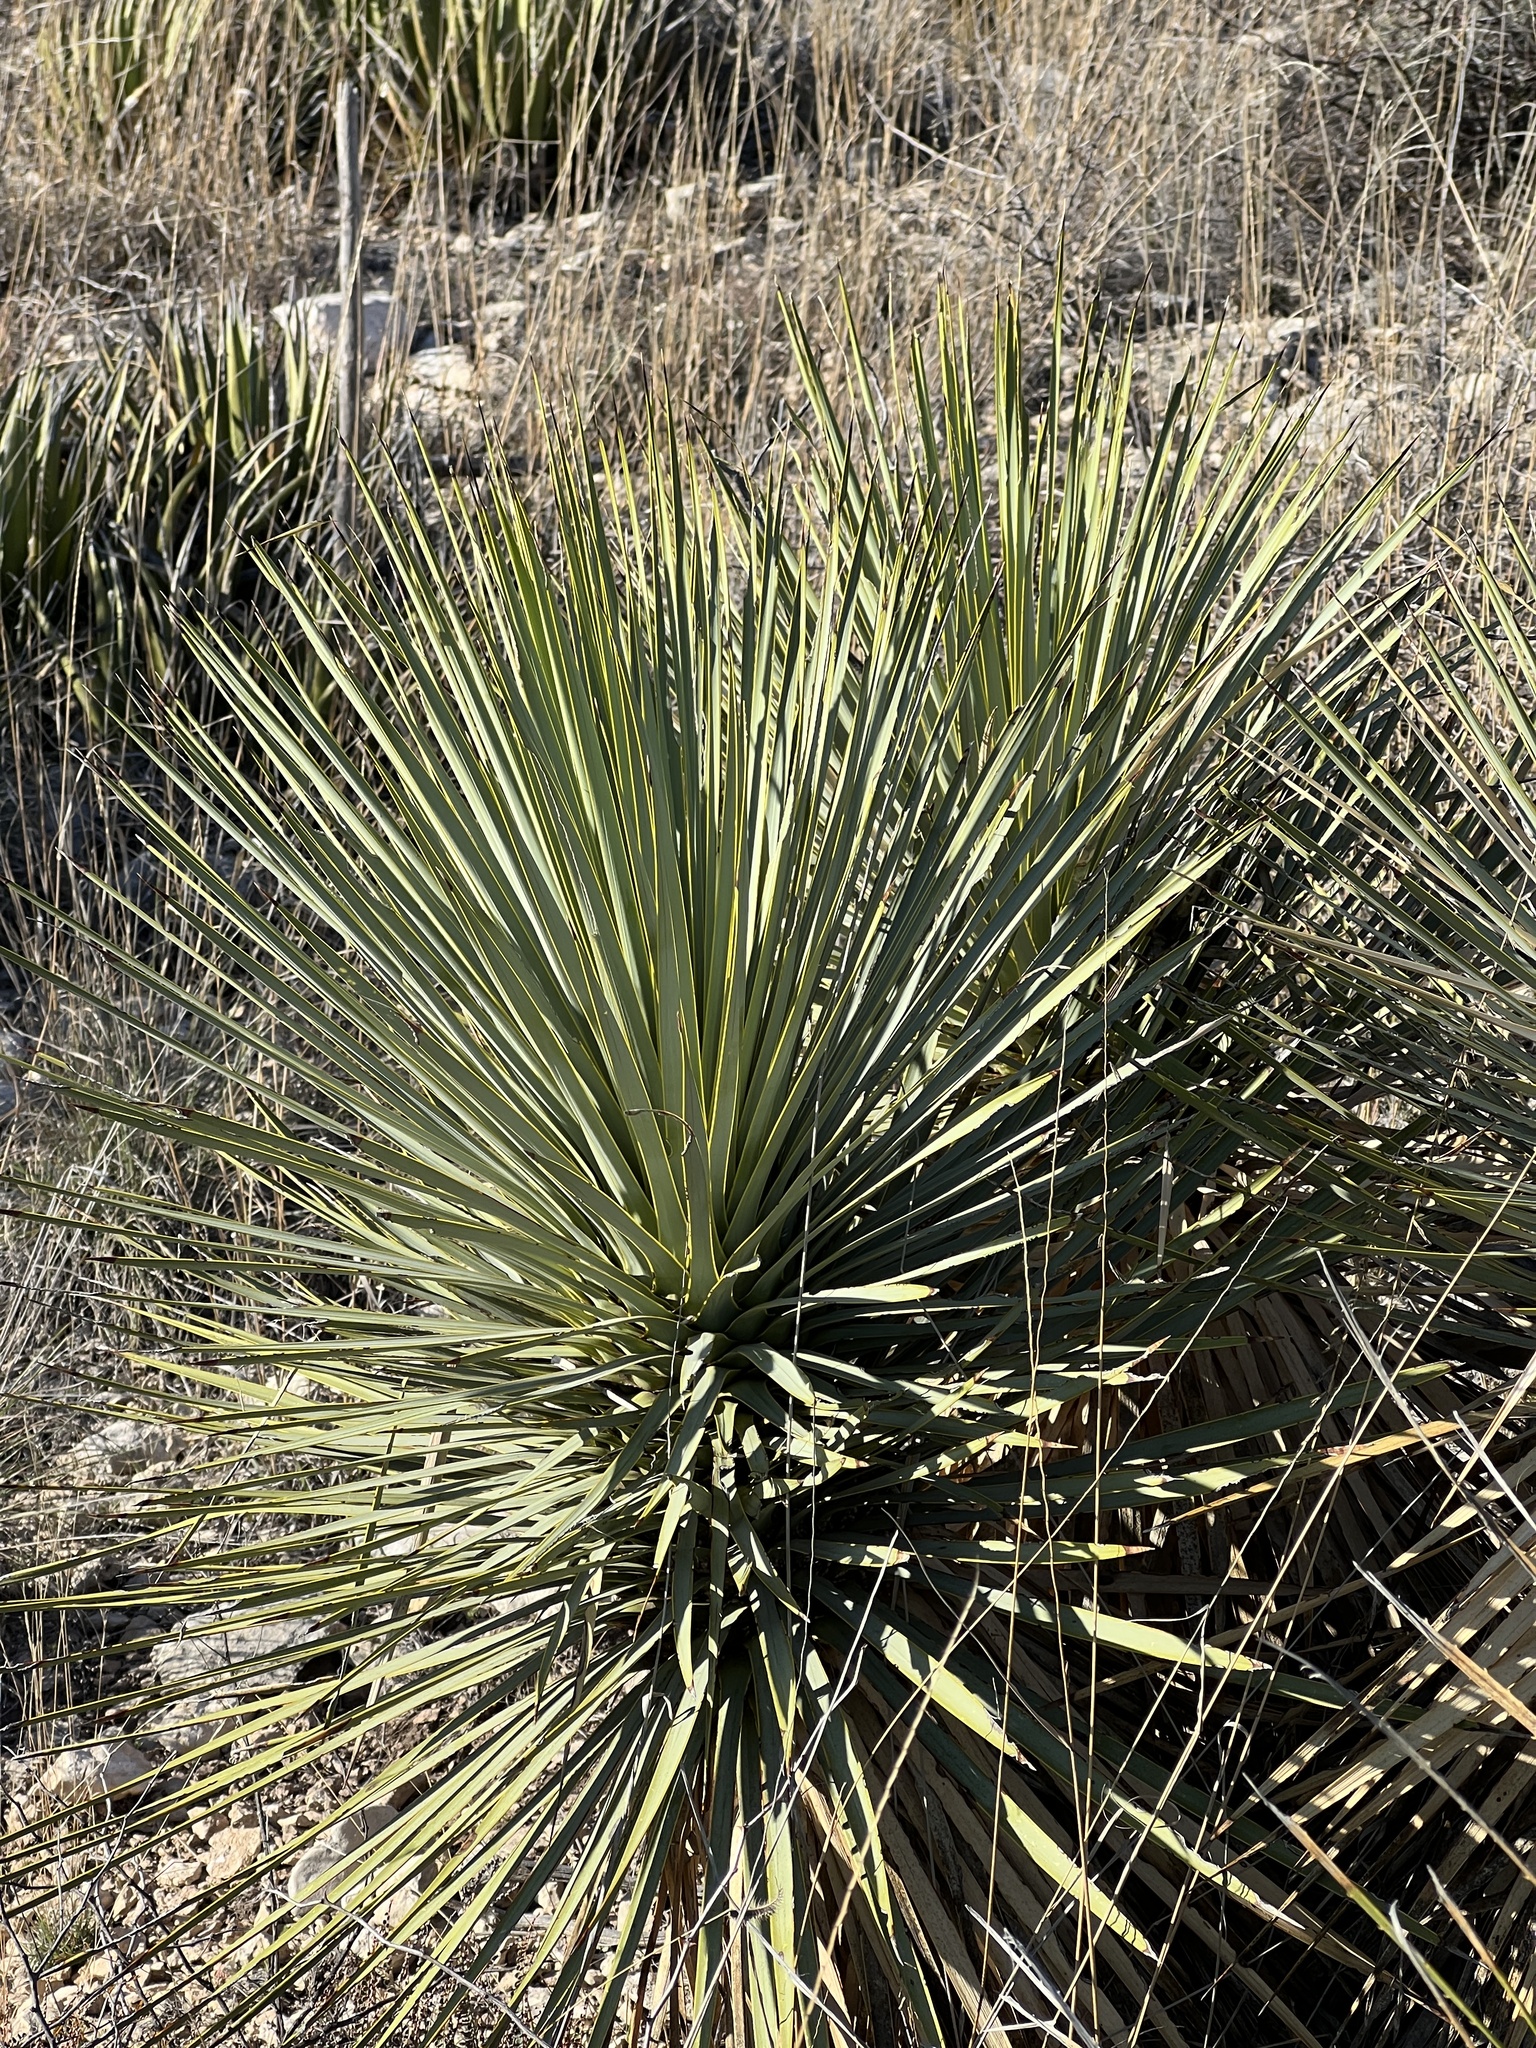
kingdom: Plantae
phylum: Tracheophyta
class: Liliopsida
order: Asparagales
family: Asparagaceae
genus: Yucca
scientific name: Yucca thompsoniana
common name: Trans-pecos yucca
